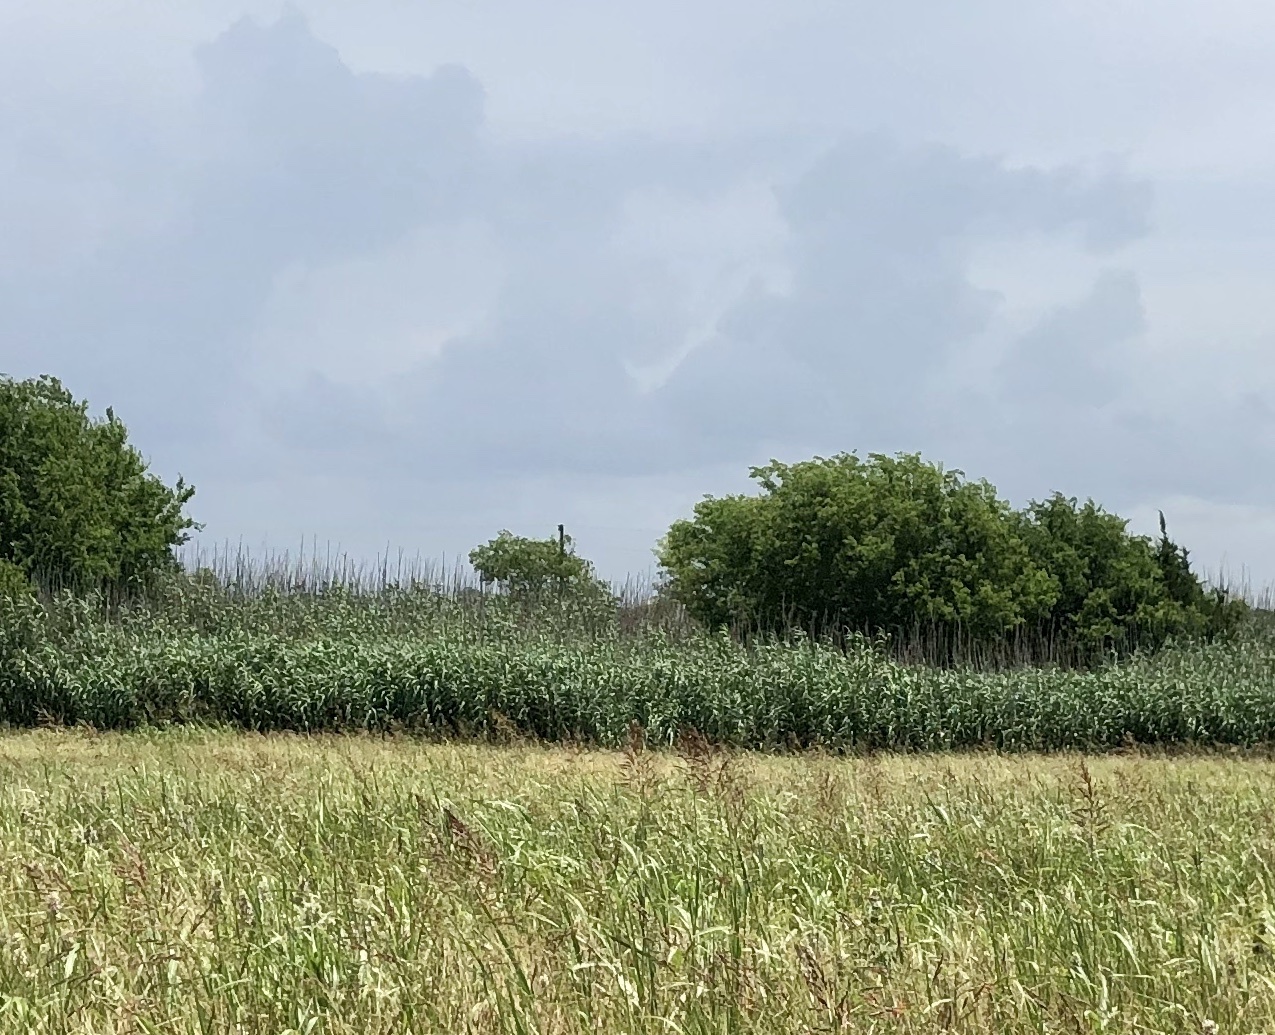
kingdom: Plantae
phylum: Tracheophyta
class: Liliopsida
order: Poales
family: Poaceae
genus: Arundo
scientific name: Arundo donax
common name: Giant reed
